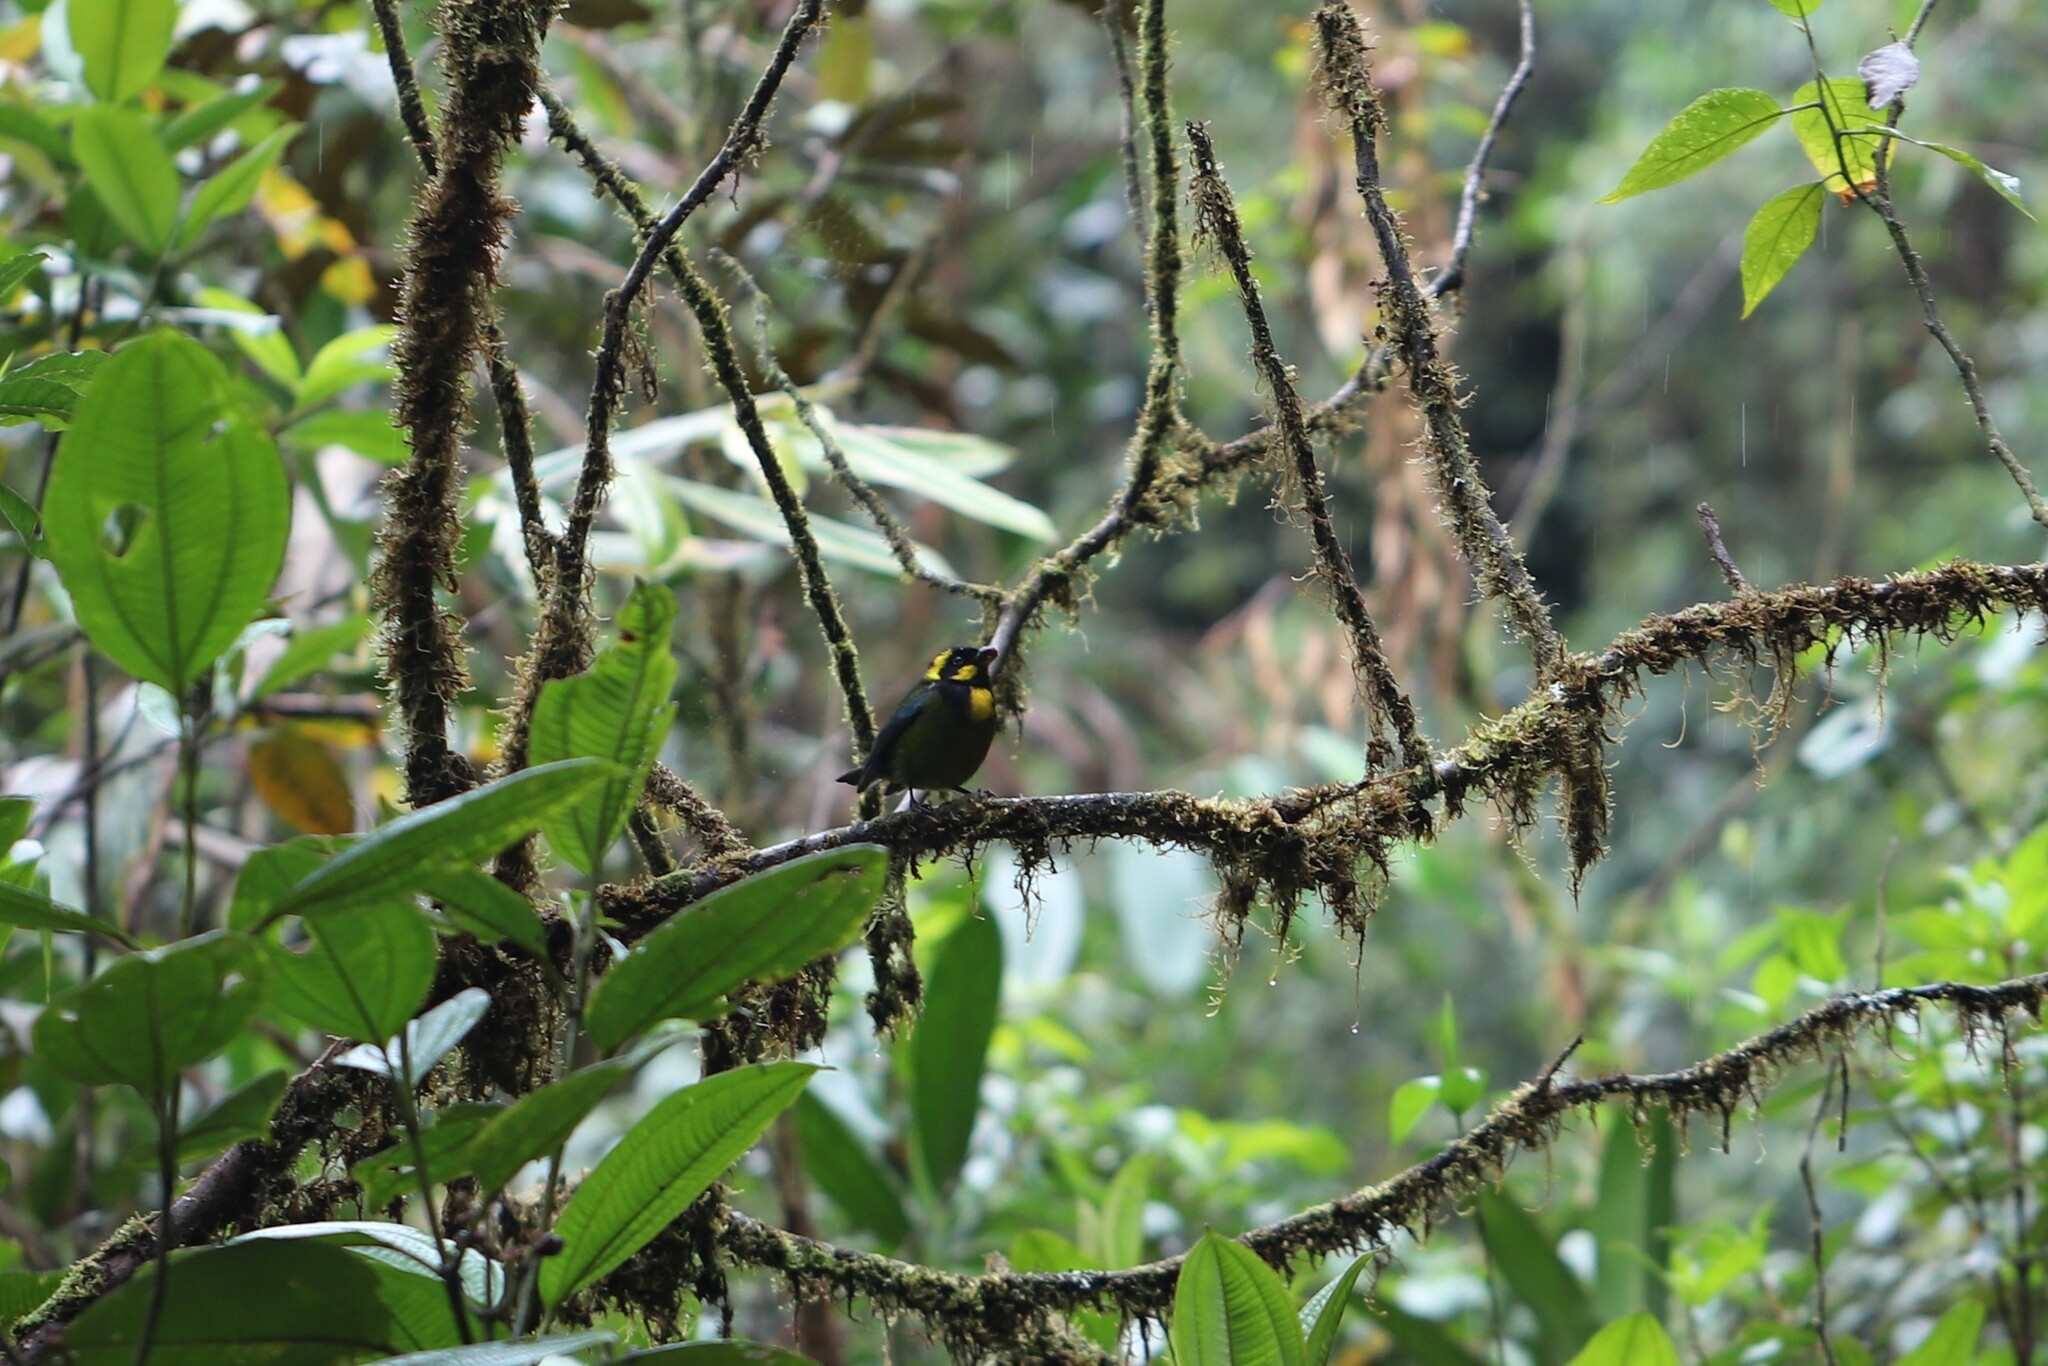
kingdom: Animalia
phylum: Chordata
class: Aves
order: Passeriformes
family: Thraupidae
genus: Bangsia
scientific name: Bangsia aureocincta
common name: Gold-ringed tanager
